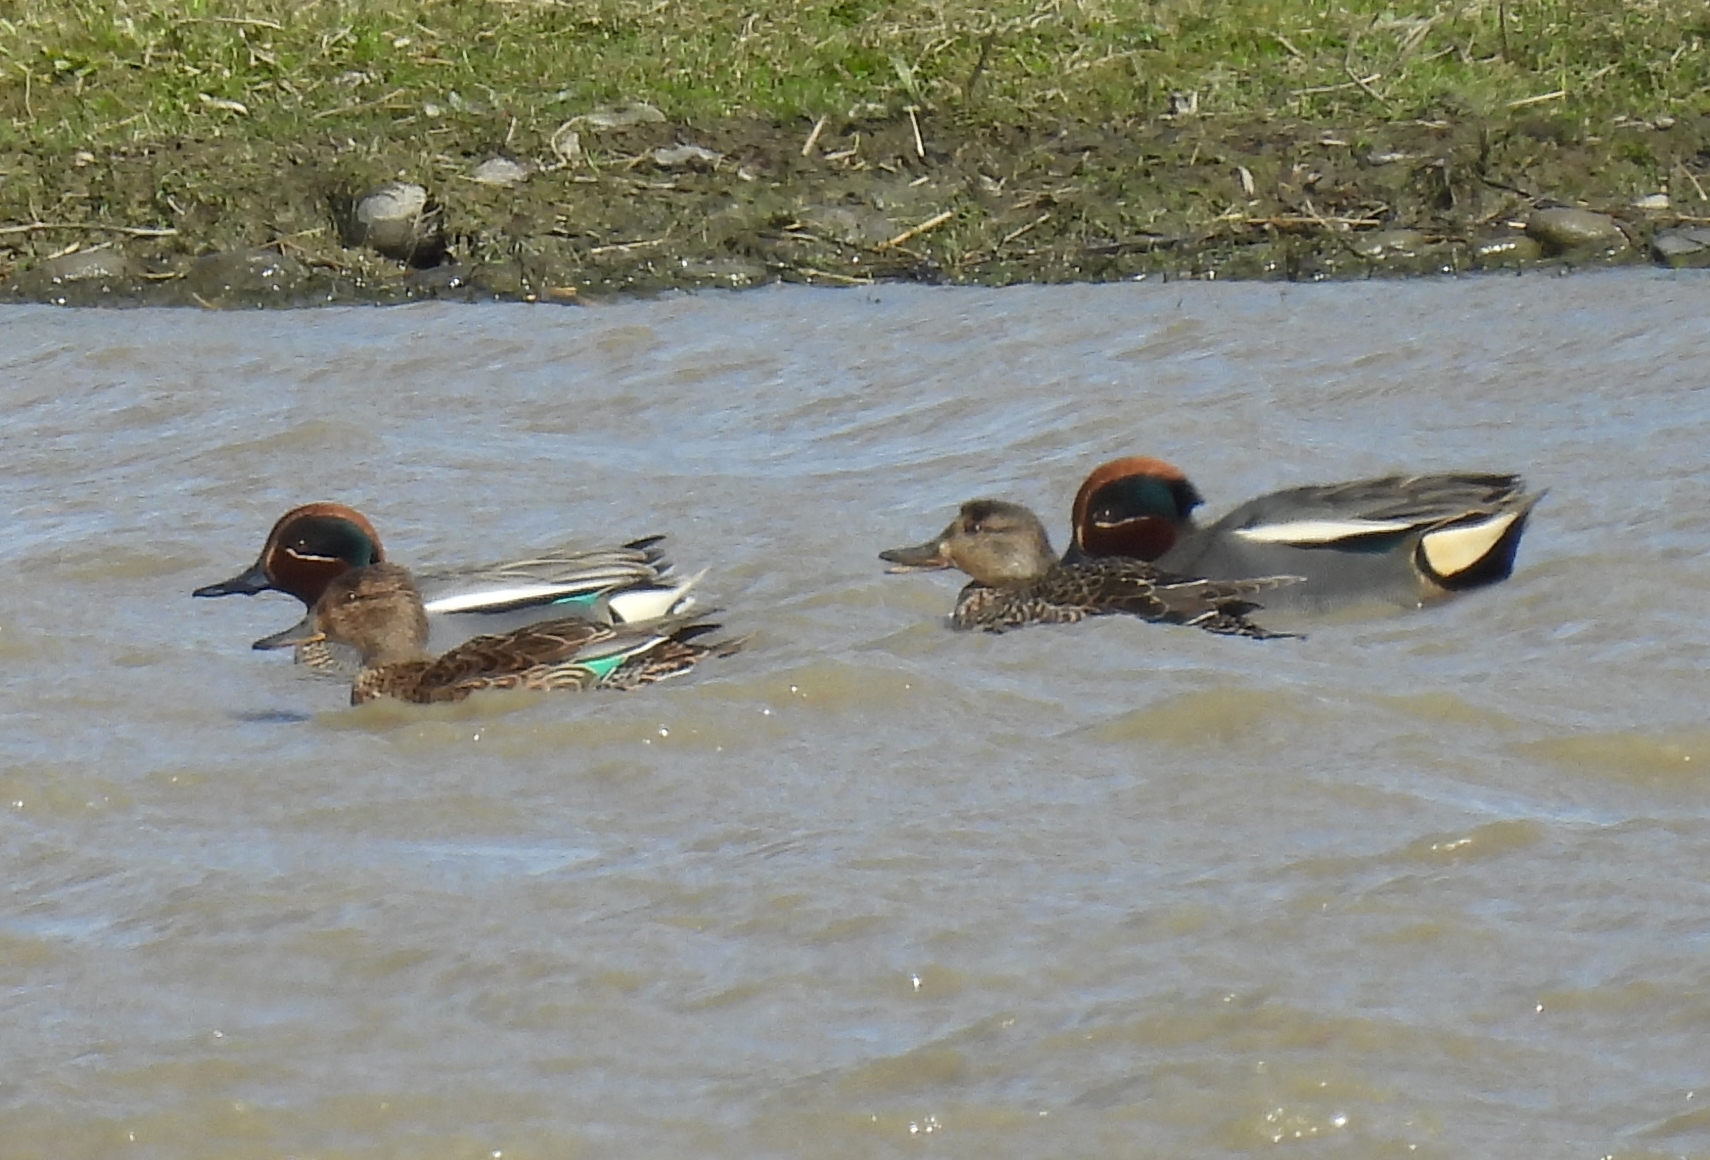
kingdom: Animalia
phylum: Chordata
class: Aves
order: Anseriformes
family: Anatidae
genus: Anas
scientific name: Anas crecca
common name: Eurasian teal
